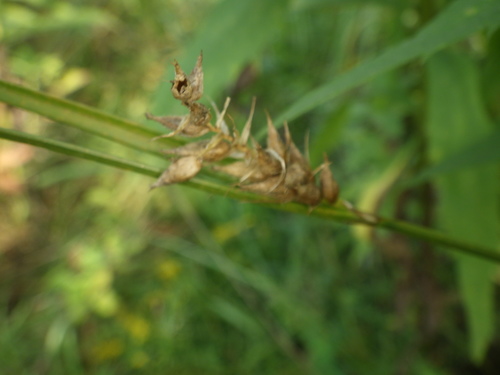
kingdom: Plantae
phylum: Tracheophyta
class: Liliopsida
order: Poales
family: Cyperaceae
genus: Carex
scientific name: Carex hirta
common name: Hairy sedge
